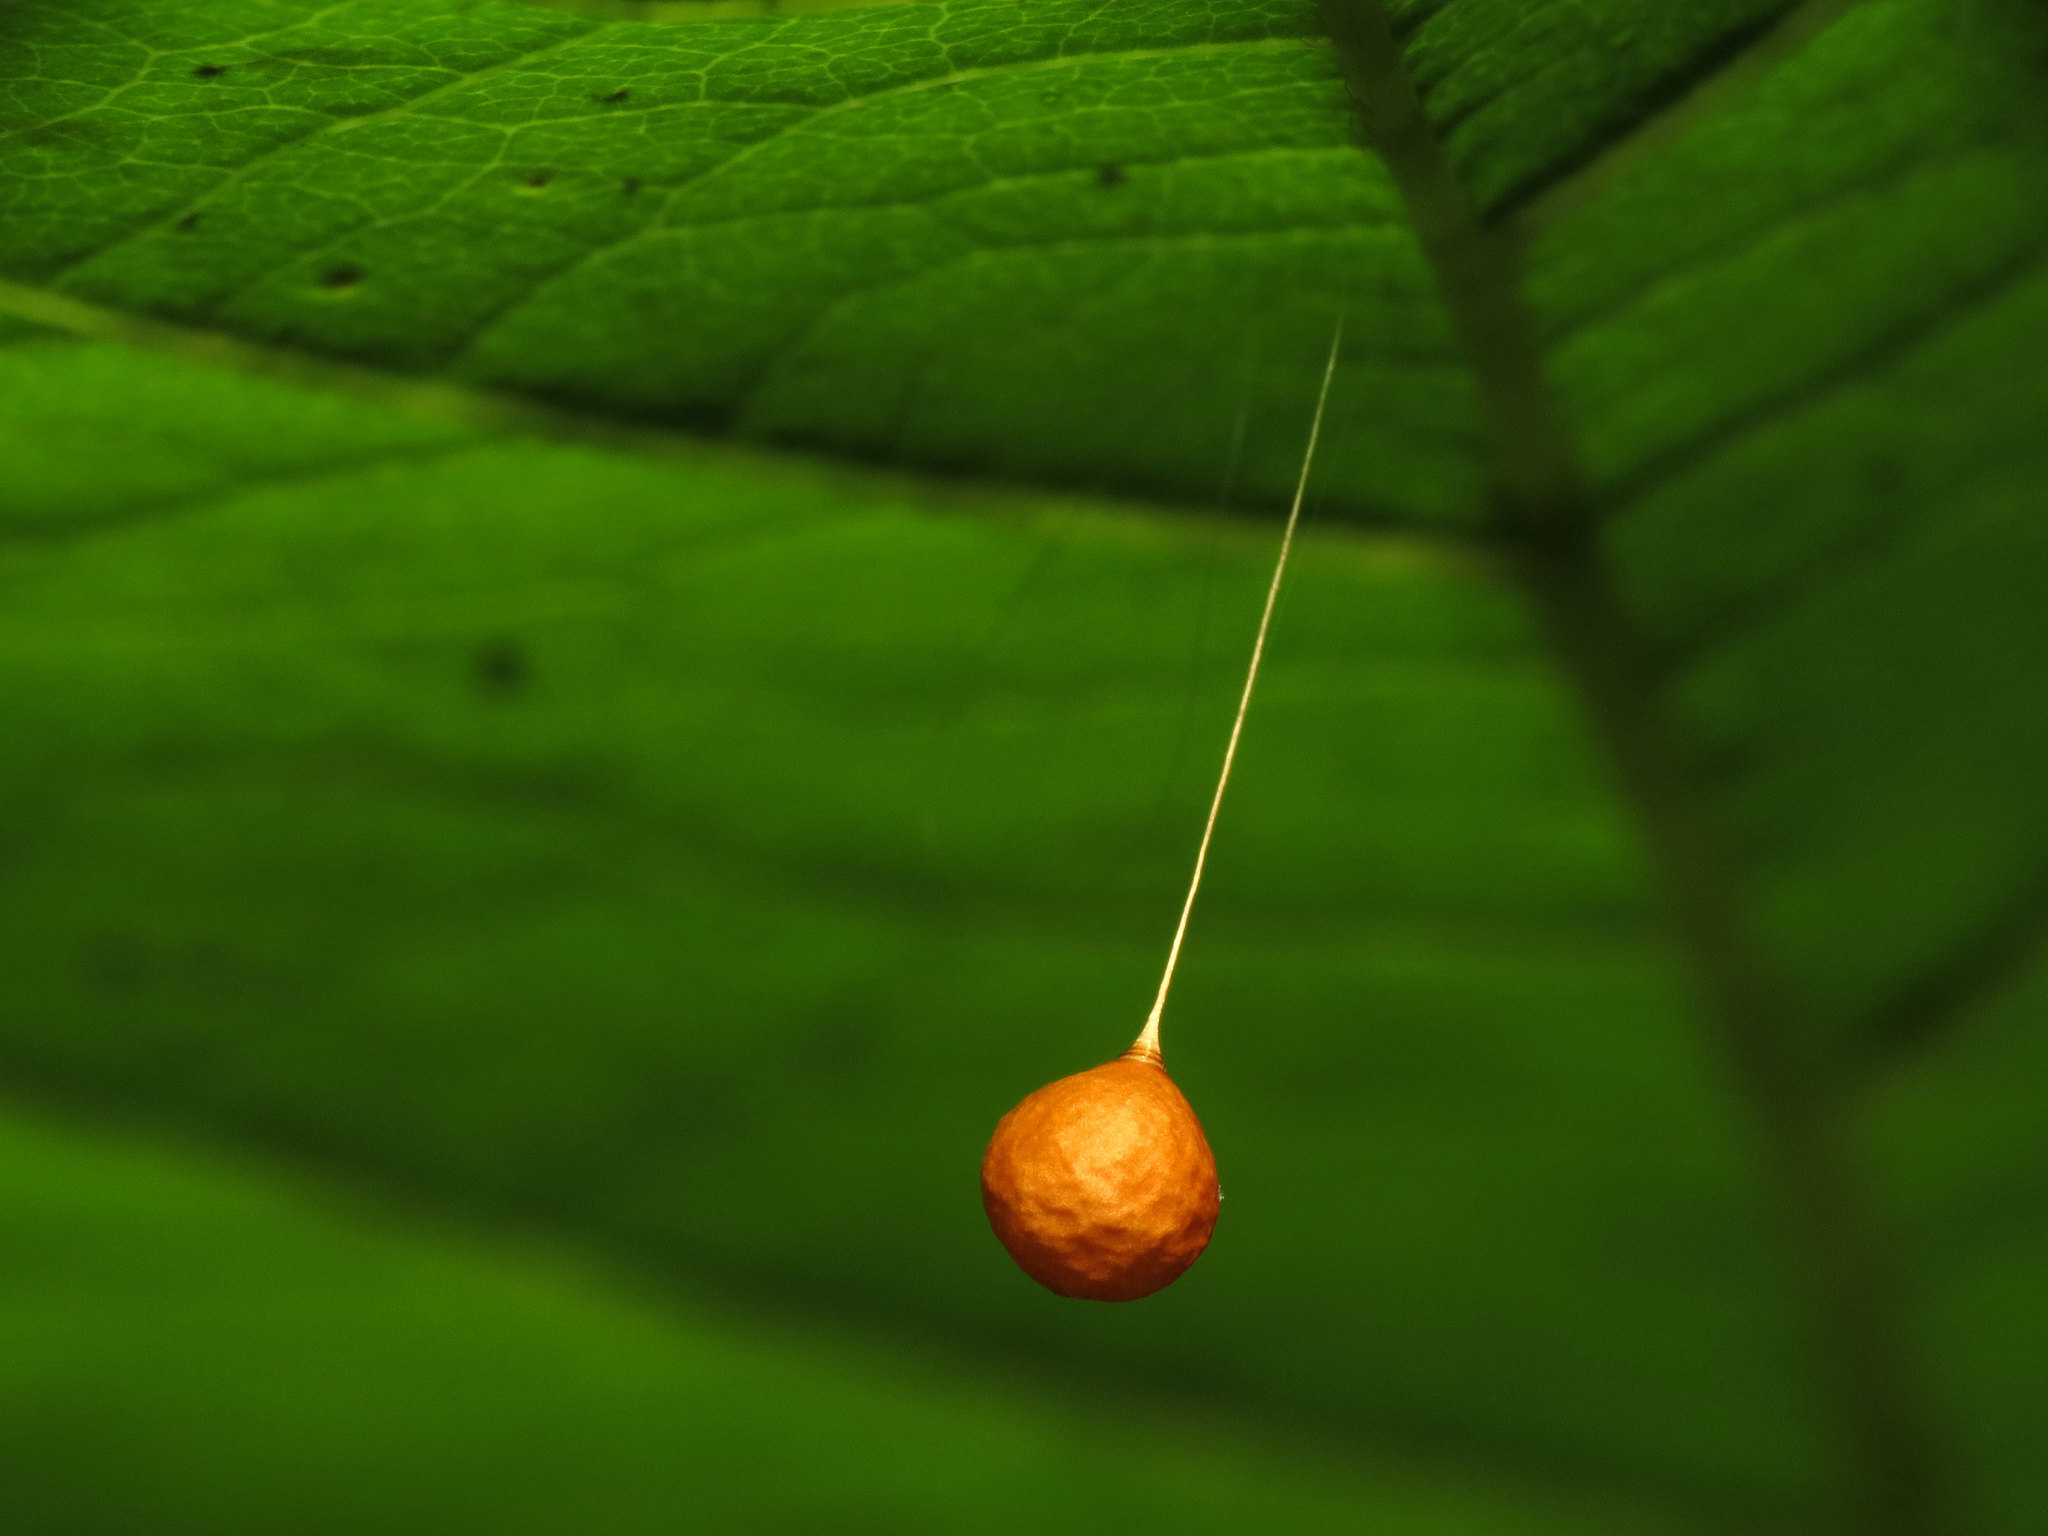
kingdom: Animalia
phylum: Arthropoda
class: Arachnida
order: Araneae
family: Theridiosomatidae
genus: Theridiosoma
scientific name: Theridiosoma gemmosum
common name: Ray spider
